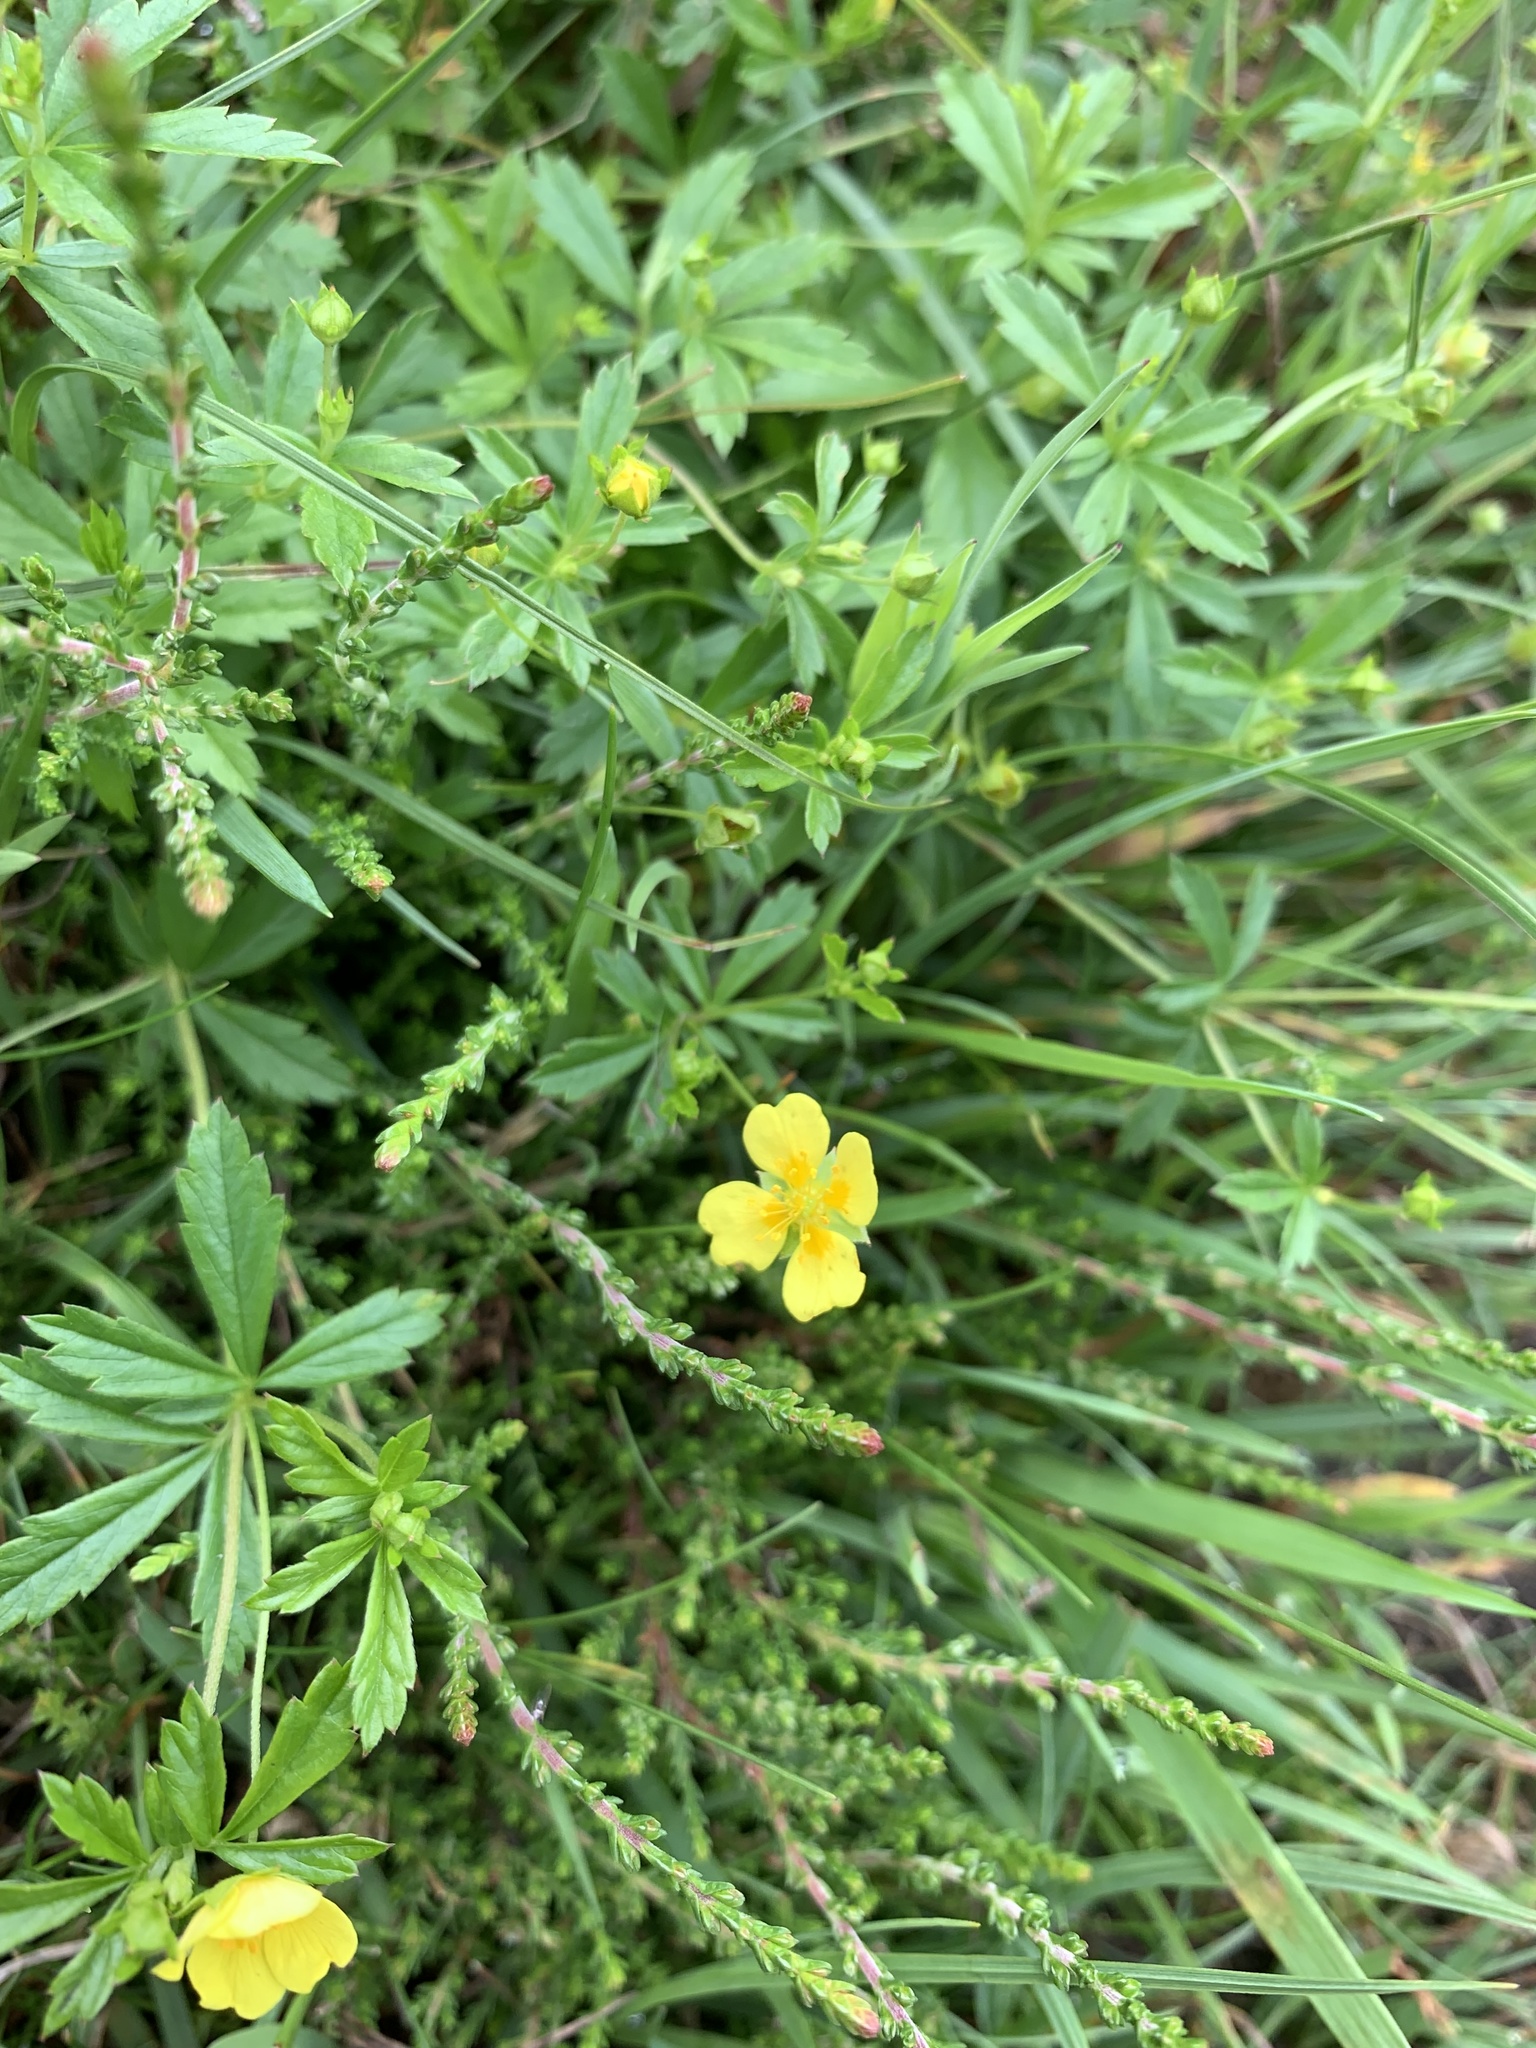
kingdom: Plantae
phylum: Tracheophyta
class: Magnoliopsida
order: Rosales
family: Rosaceae
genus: Potentilla
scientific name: Potentilla erecta
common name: Tormentil
